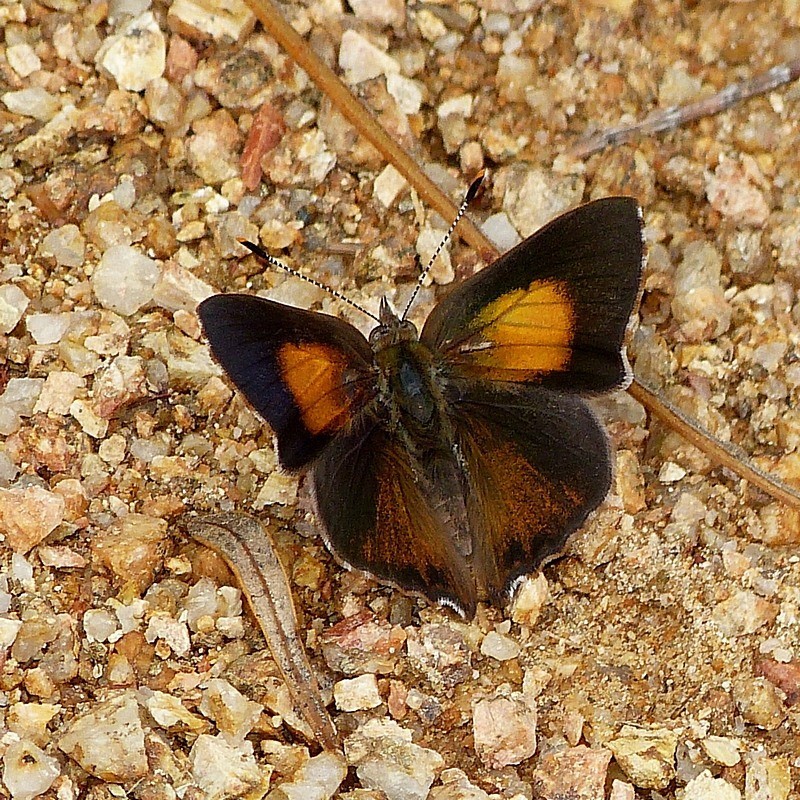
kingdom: Animalia
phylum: Arthropoda
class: Insecta
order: Lepidoptera
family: Lycaenidae
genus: Paralucia
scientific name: Paralucia pyrodiscus
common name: Fiery copper
